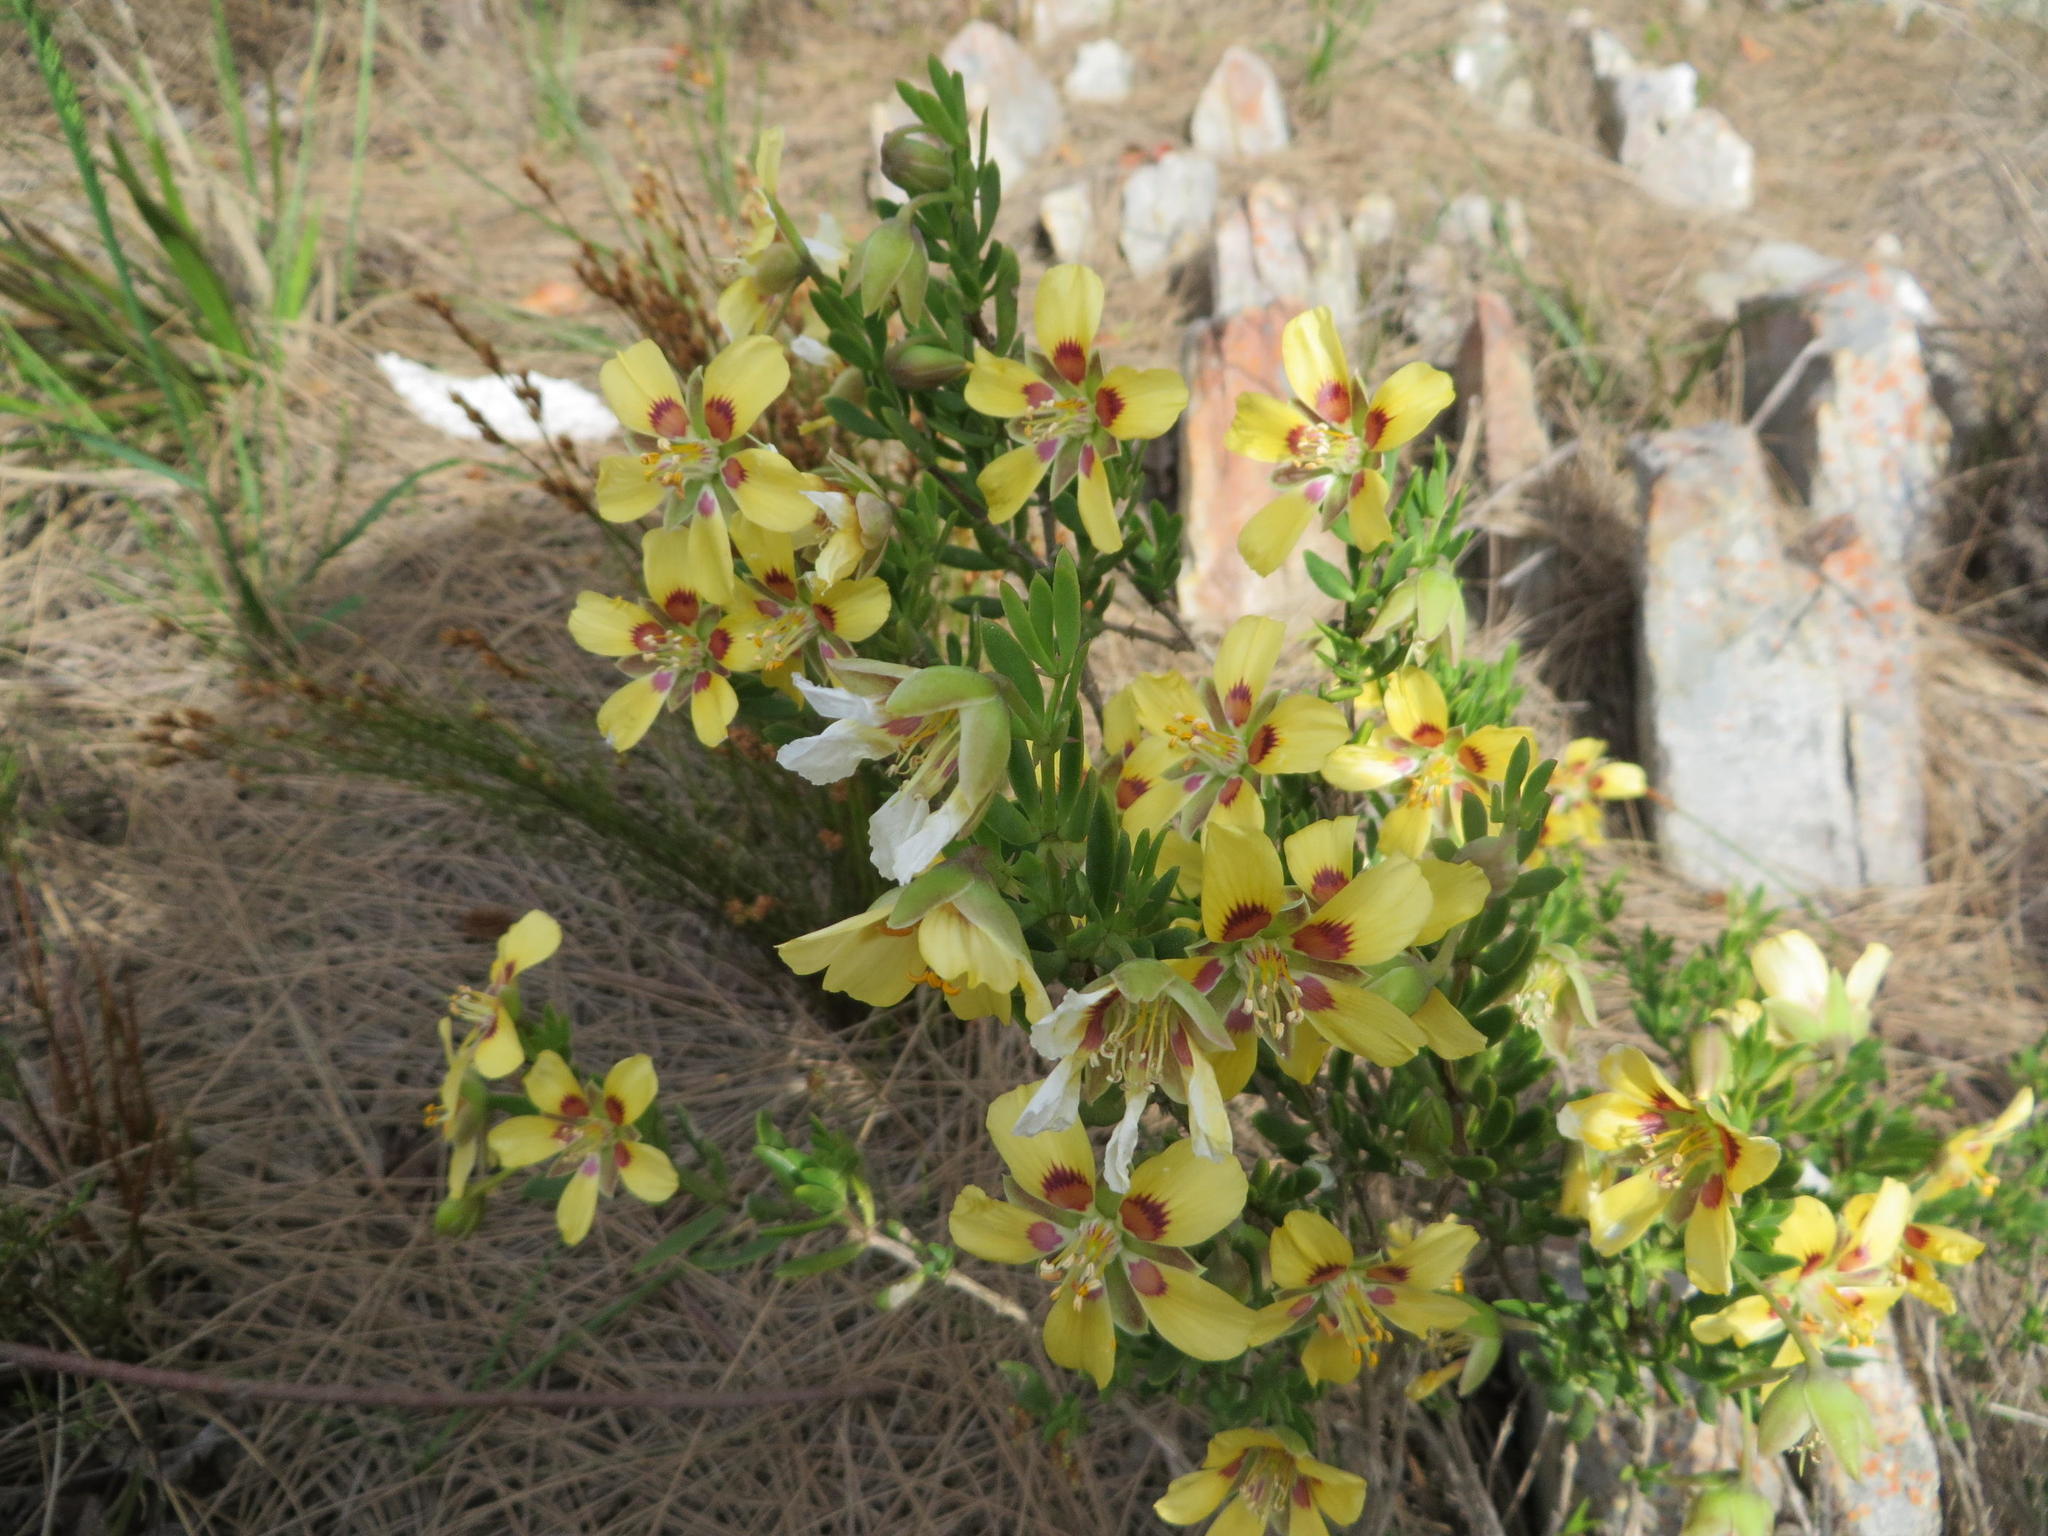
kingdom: Plantae
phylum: Tracheophyta
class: Magnoliopsida
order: Zygophyllales
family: Zygophyllaceae
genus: Roepera
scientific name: Roepera flexuosa
